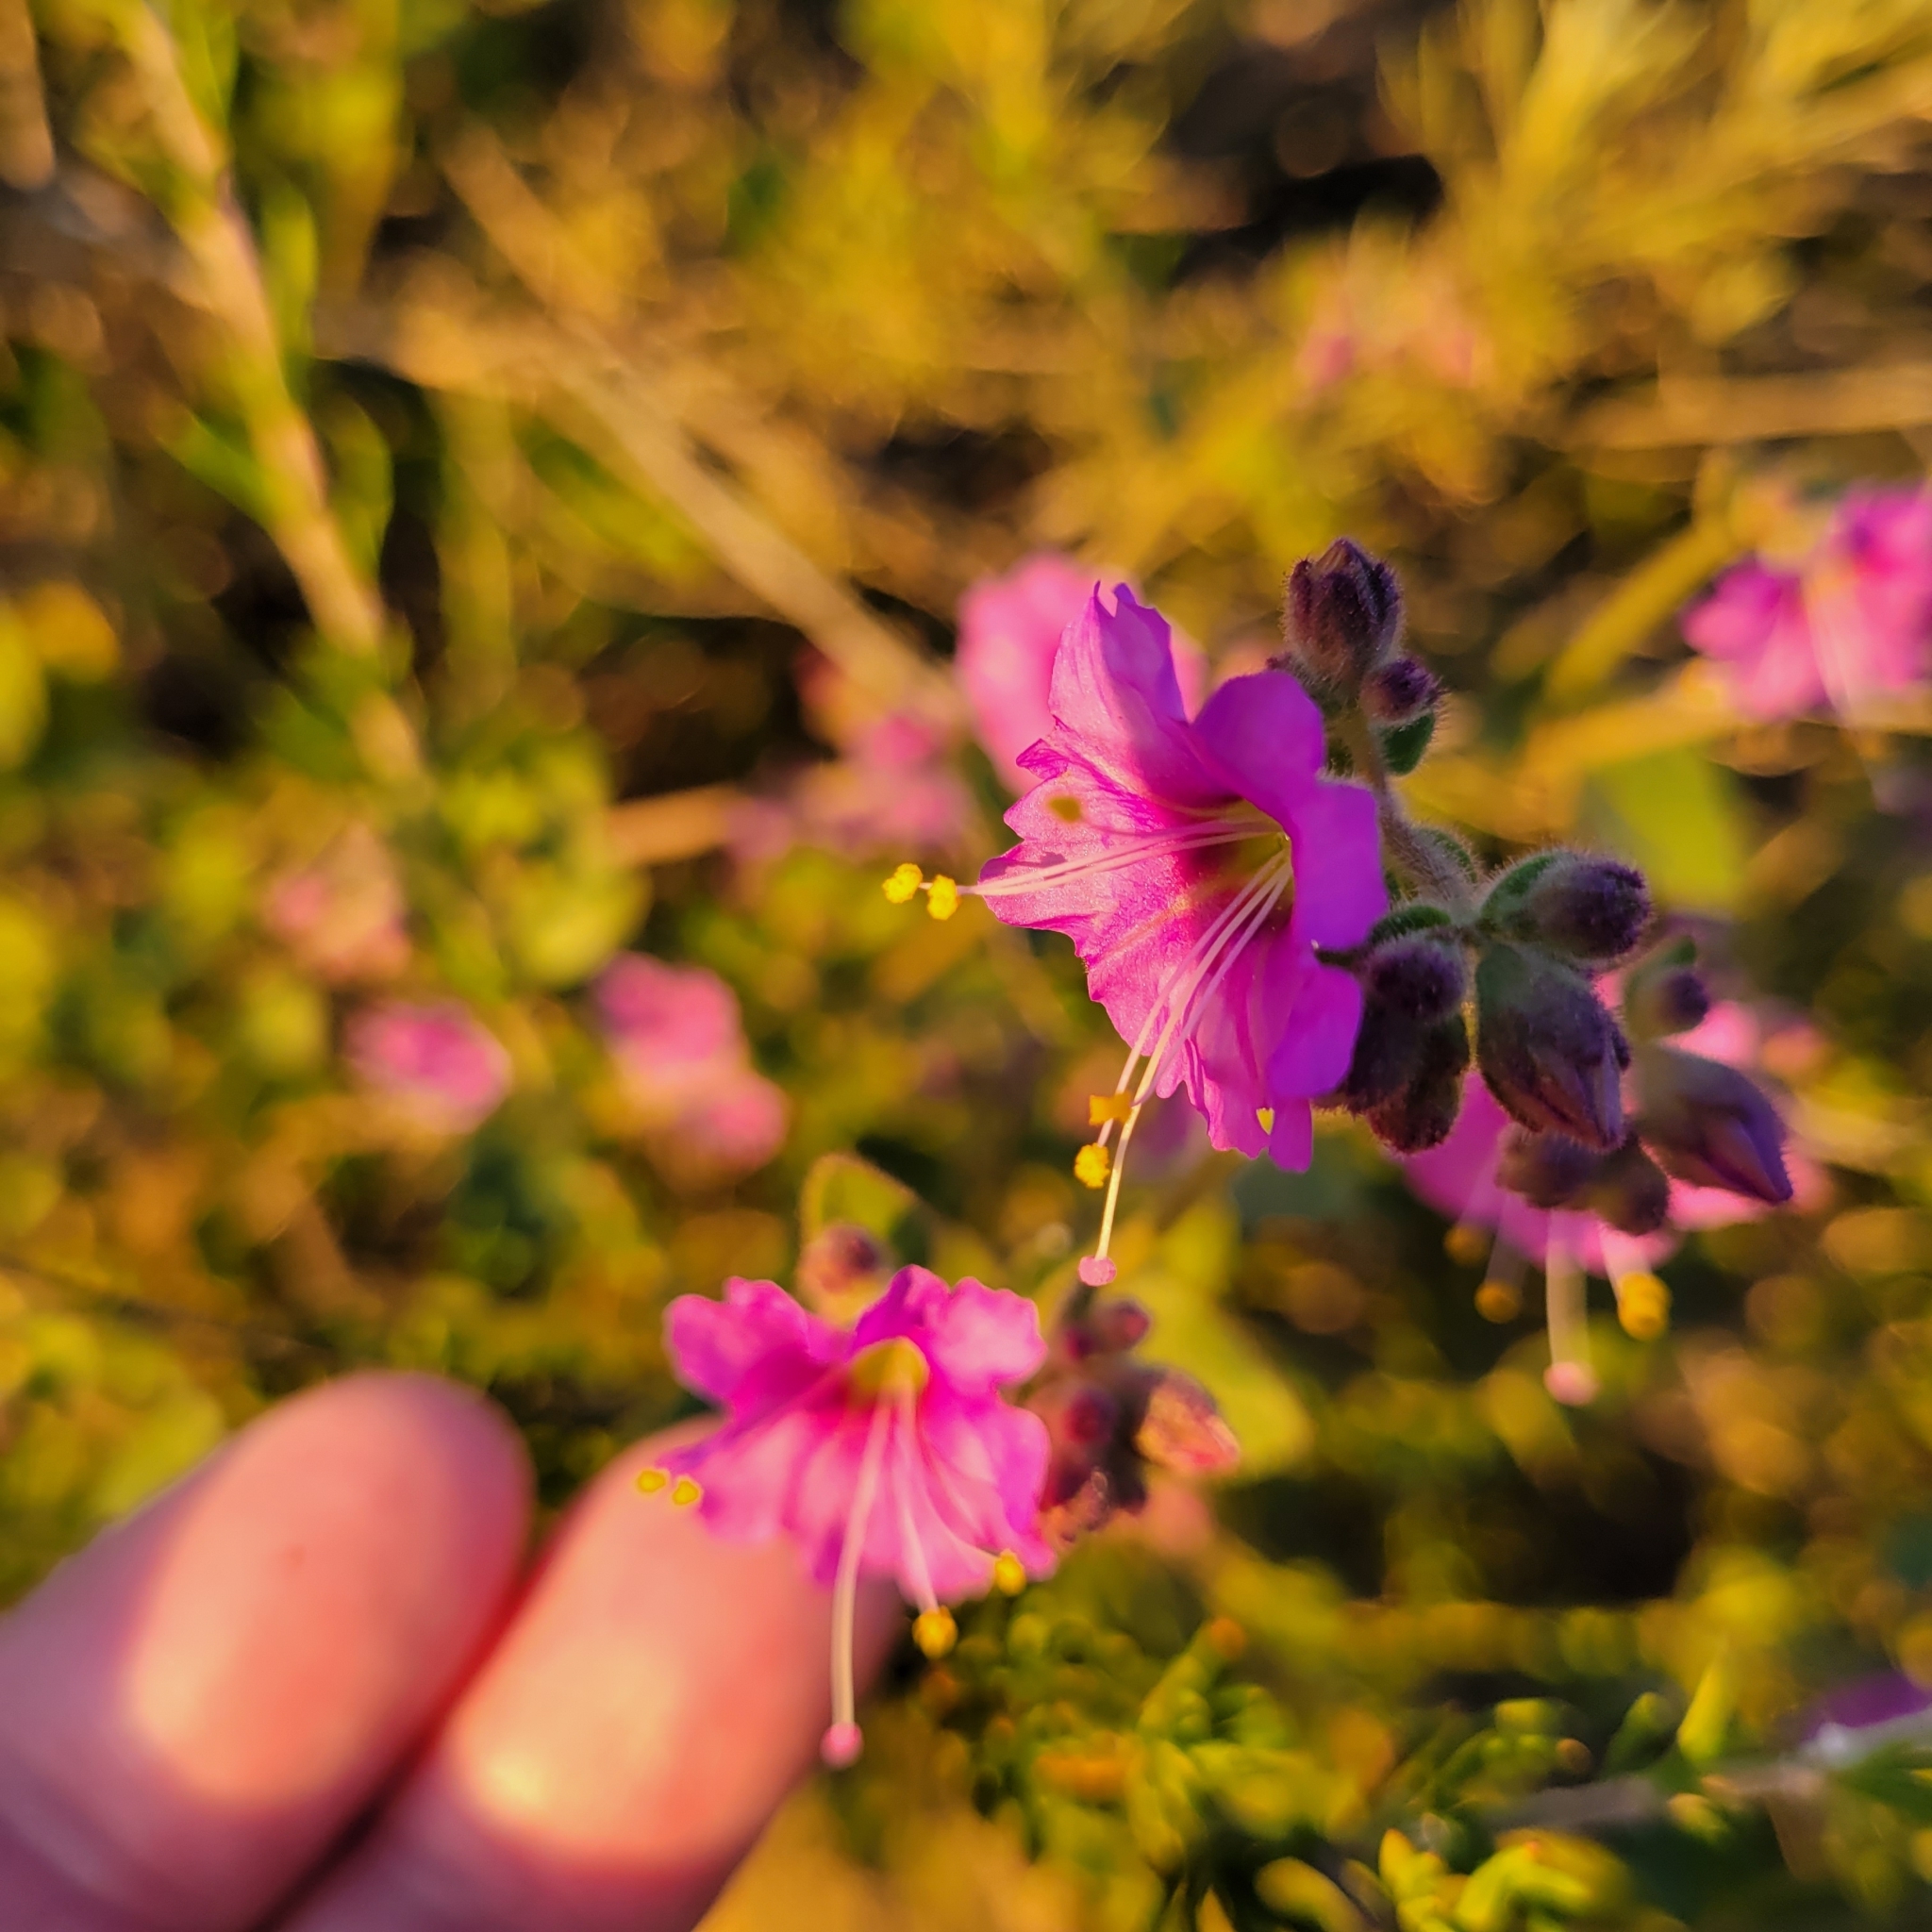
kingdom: Plantae
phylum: Tracheophyta
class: Magnoliopsida
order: Caryophyllales
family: Nyctaginaceae
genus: Mirabilis
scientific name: Mirabilis laevis
